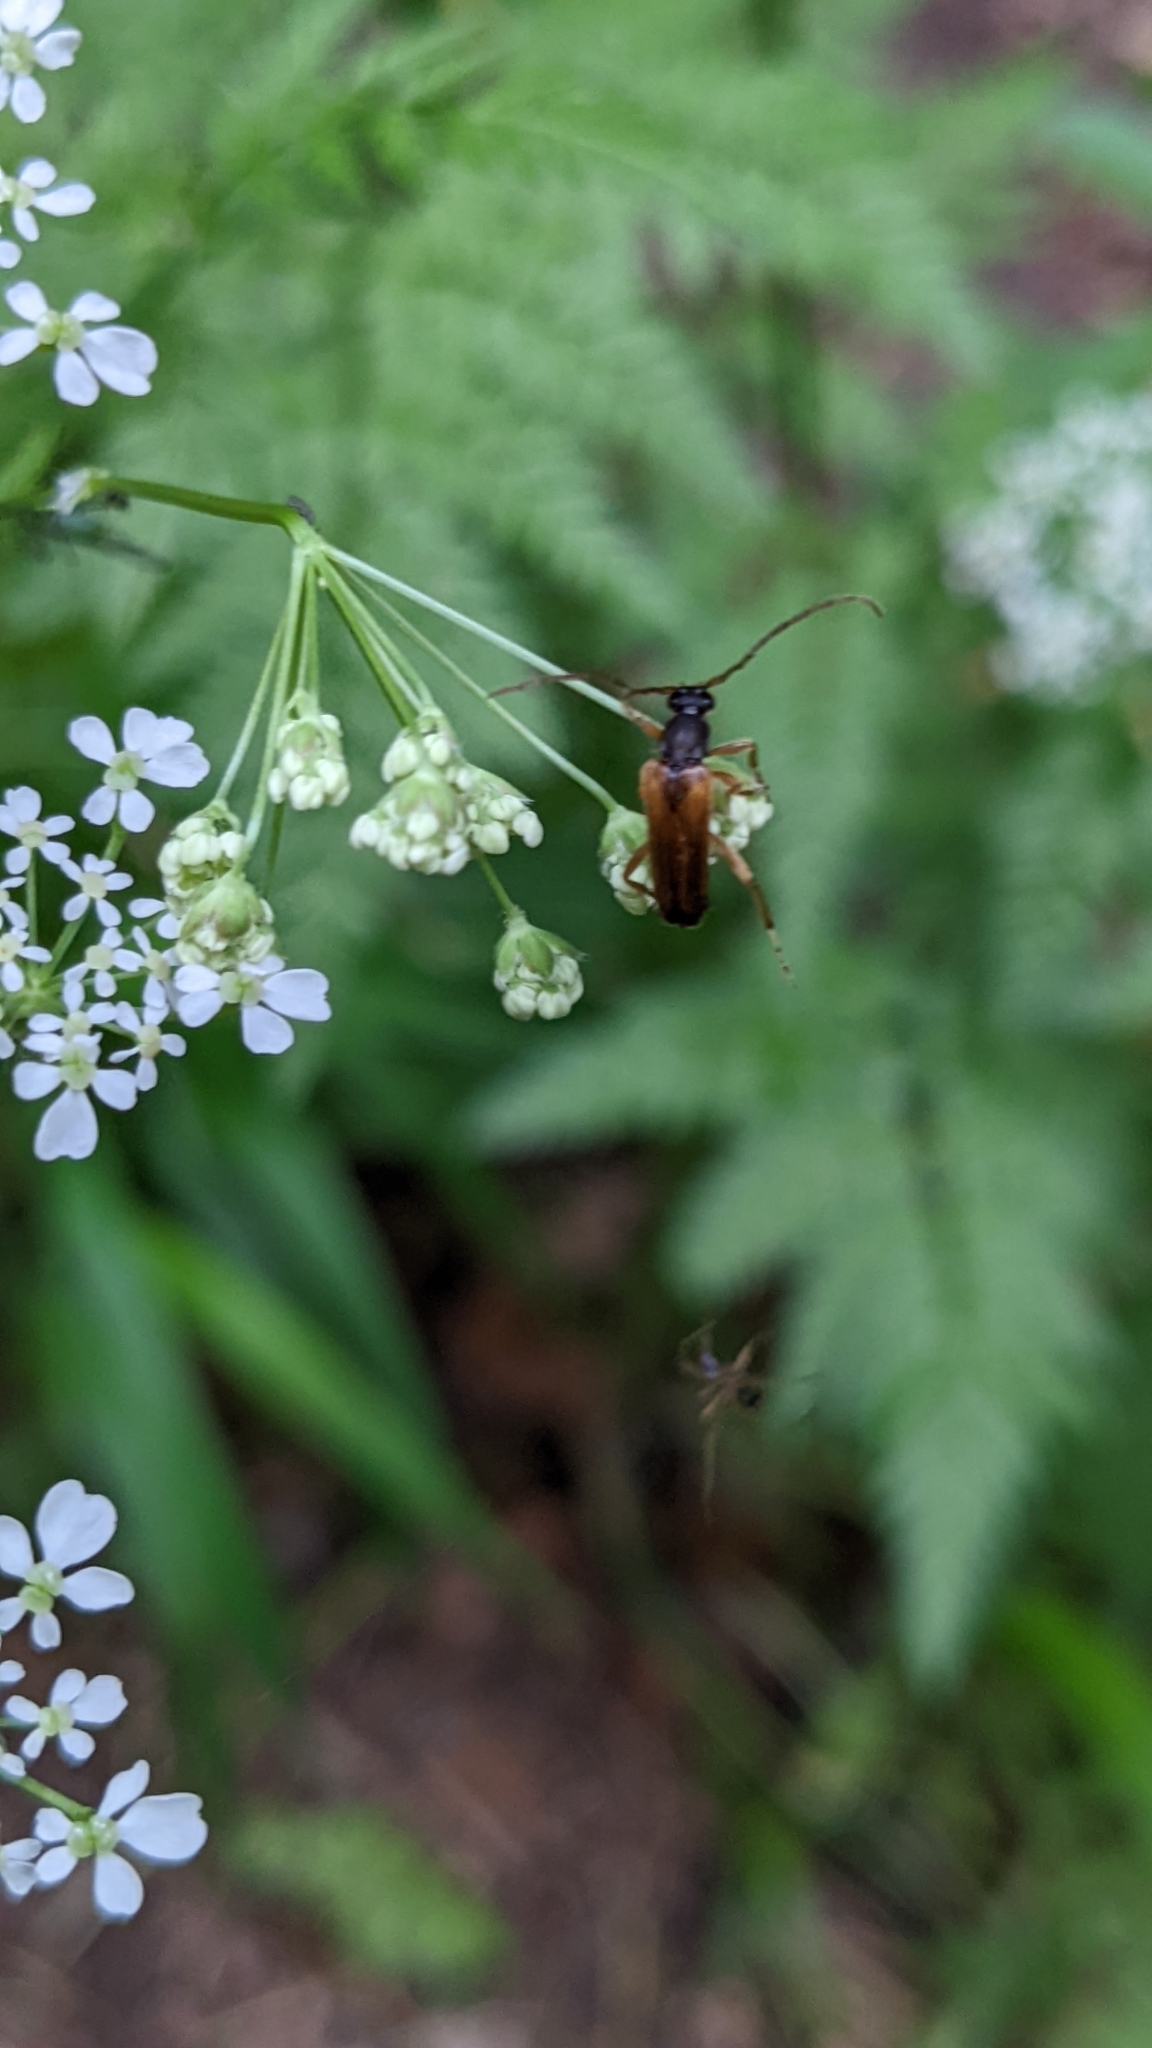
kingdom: Animalia
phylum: Arthropoda
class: Insecta
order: Coleoptera
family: Cerambycidae
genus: Alosterna
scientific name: Alosterna tabacicolor
